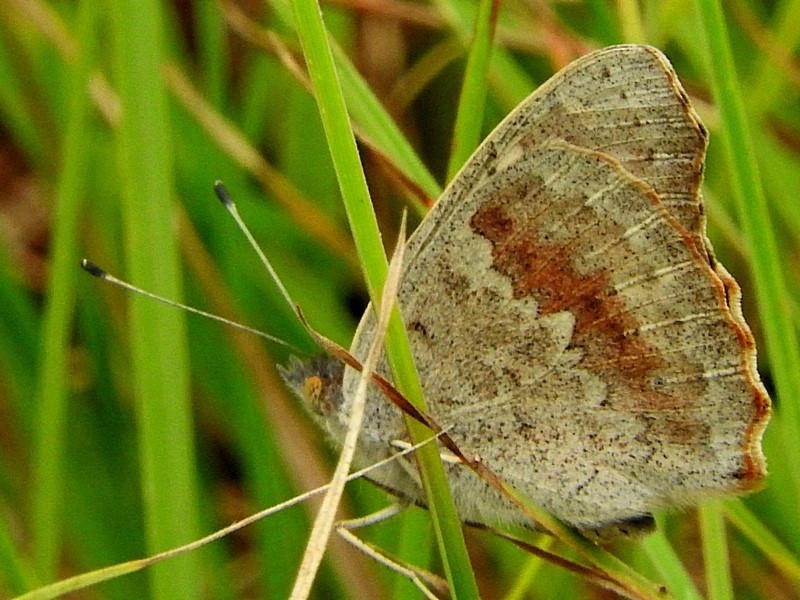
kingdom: Animalia
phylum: Arthropoda
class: Insecta
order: Lepidoptera
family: Nymphalidae
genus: Junonia
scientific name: Junonia villida
